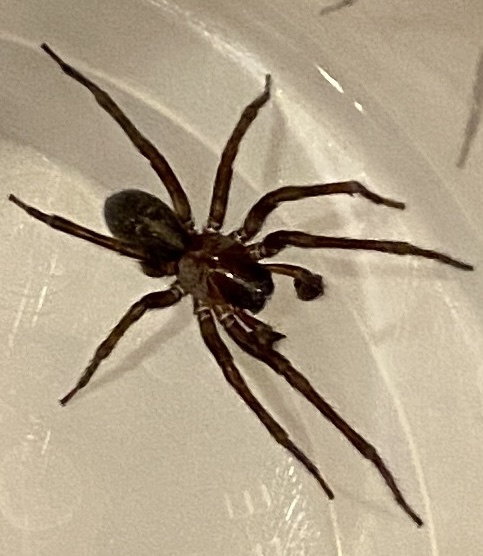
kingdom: Animalia
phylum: Arthropoda
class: Arachnida
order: Araneae
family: Amaurobiidae
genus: Amaurobius
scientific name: Amaurobius ferox
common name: Black laceweaver
